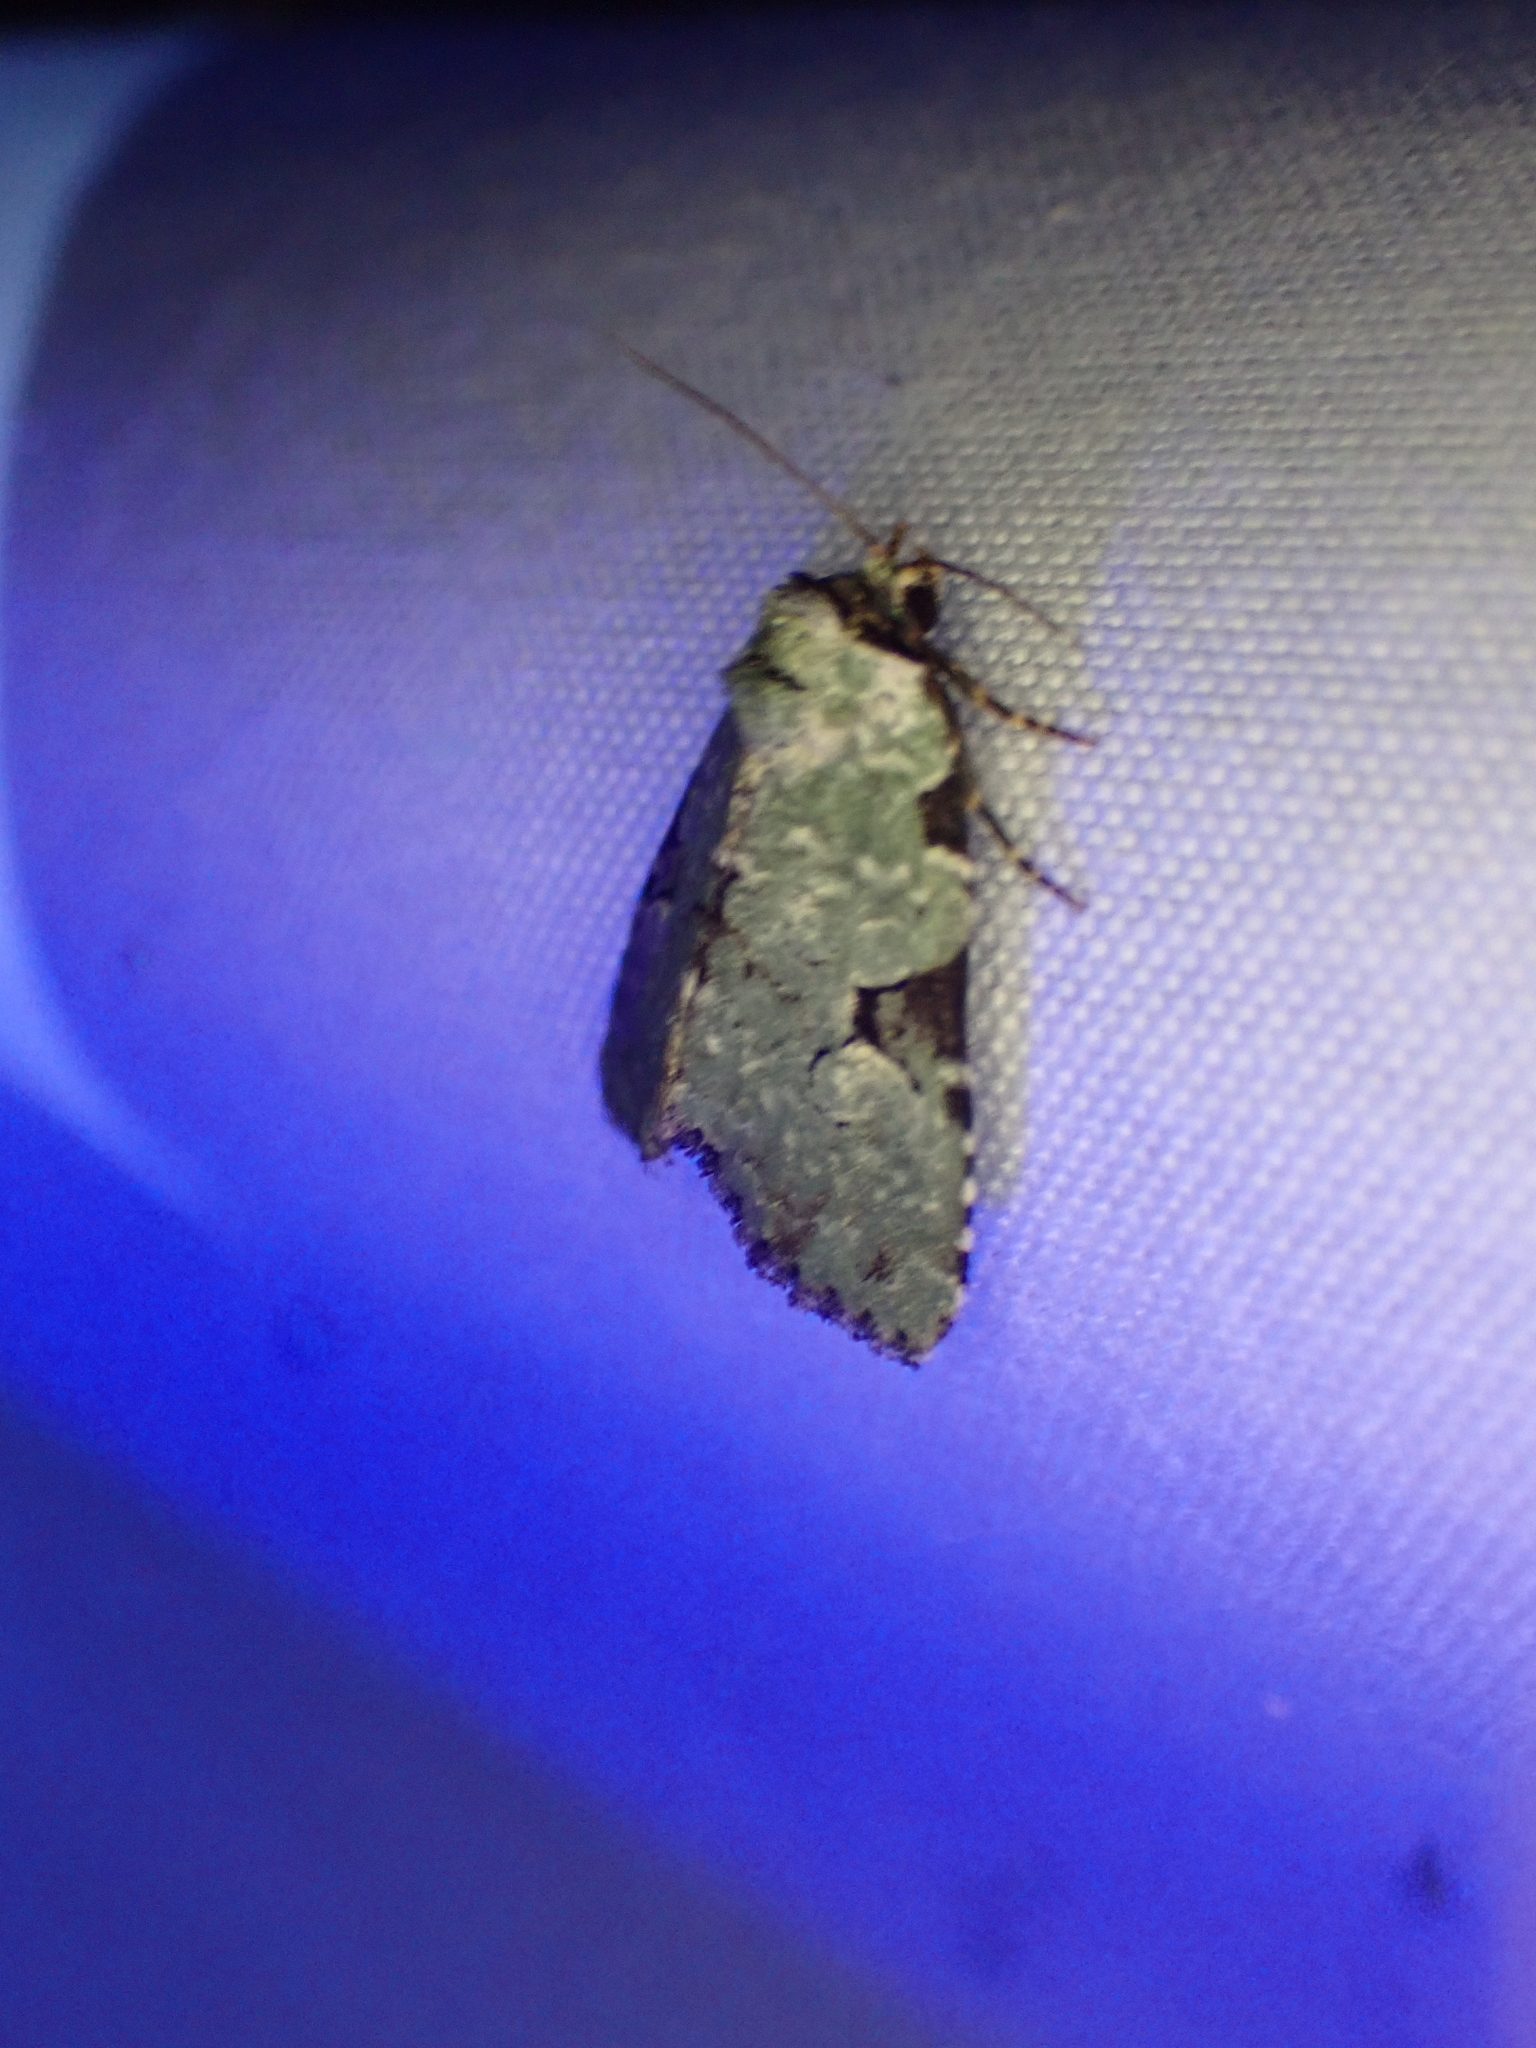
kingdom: Animalia
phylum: Arthropoda
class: Insecta
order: Lepidoptera
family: Noctuidae
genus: Leuconycta
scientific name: Leuconycta diphteroides
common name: Green leuconycta moth
